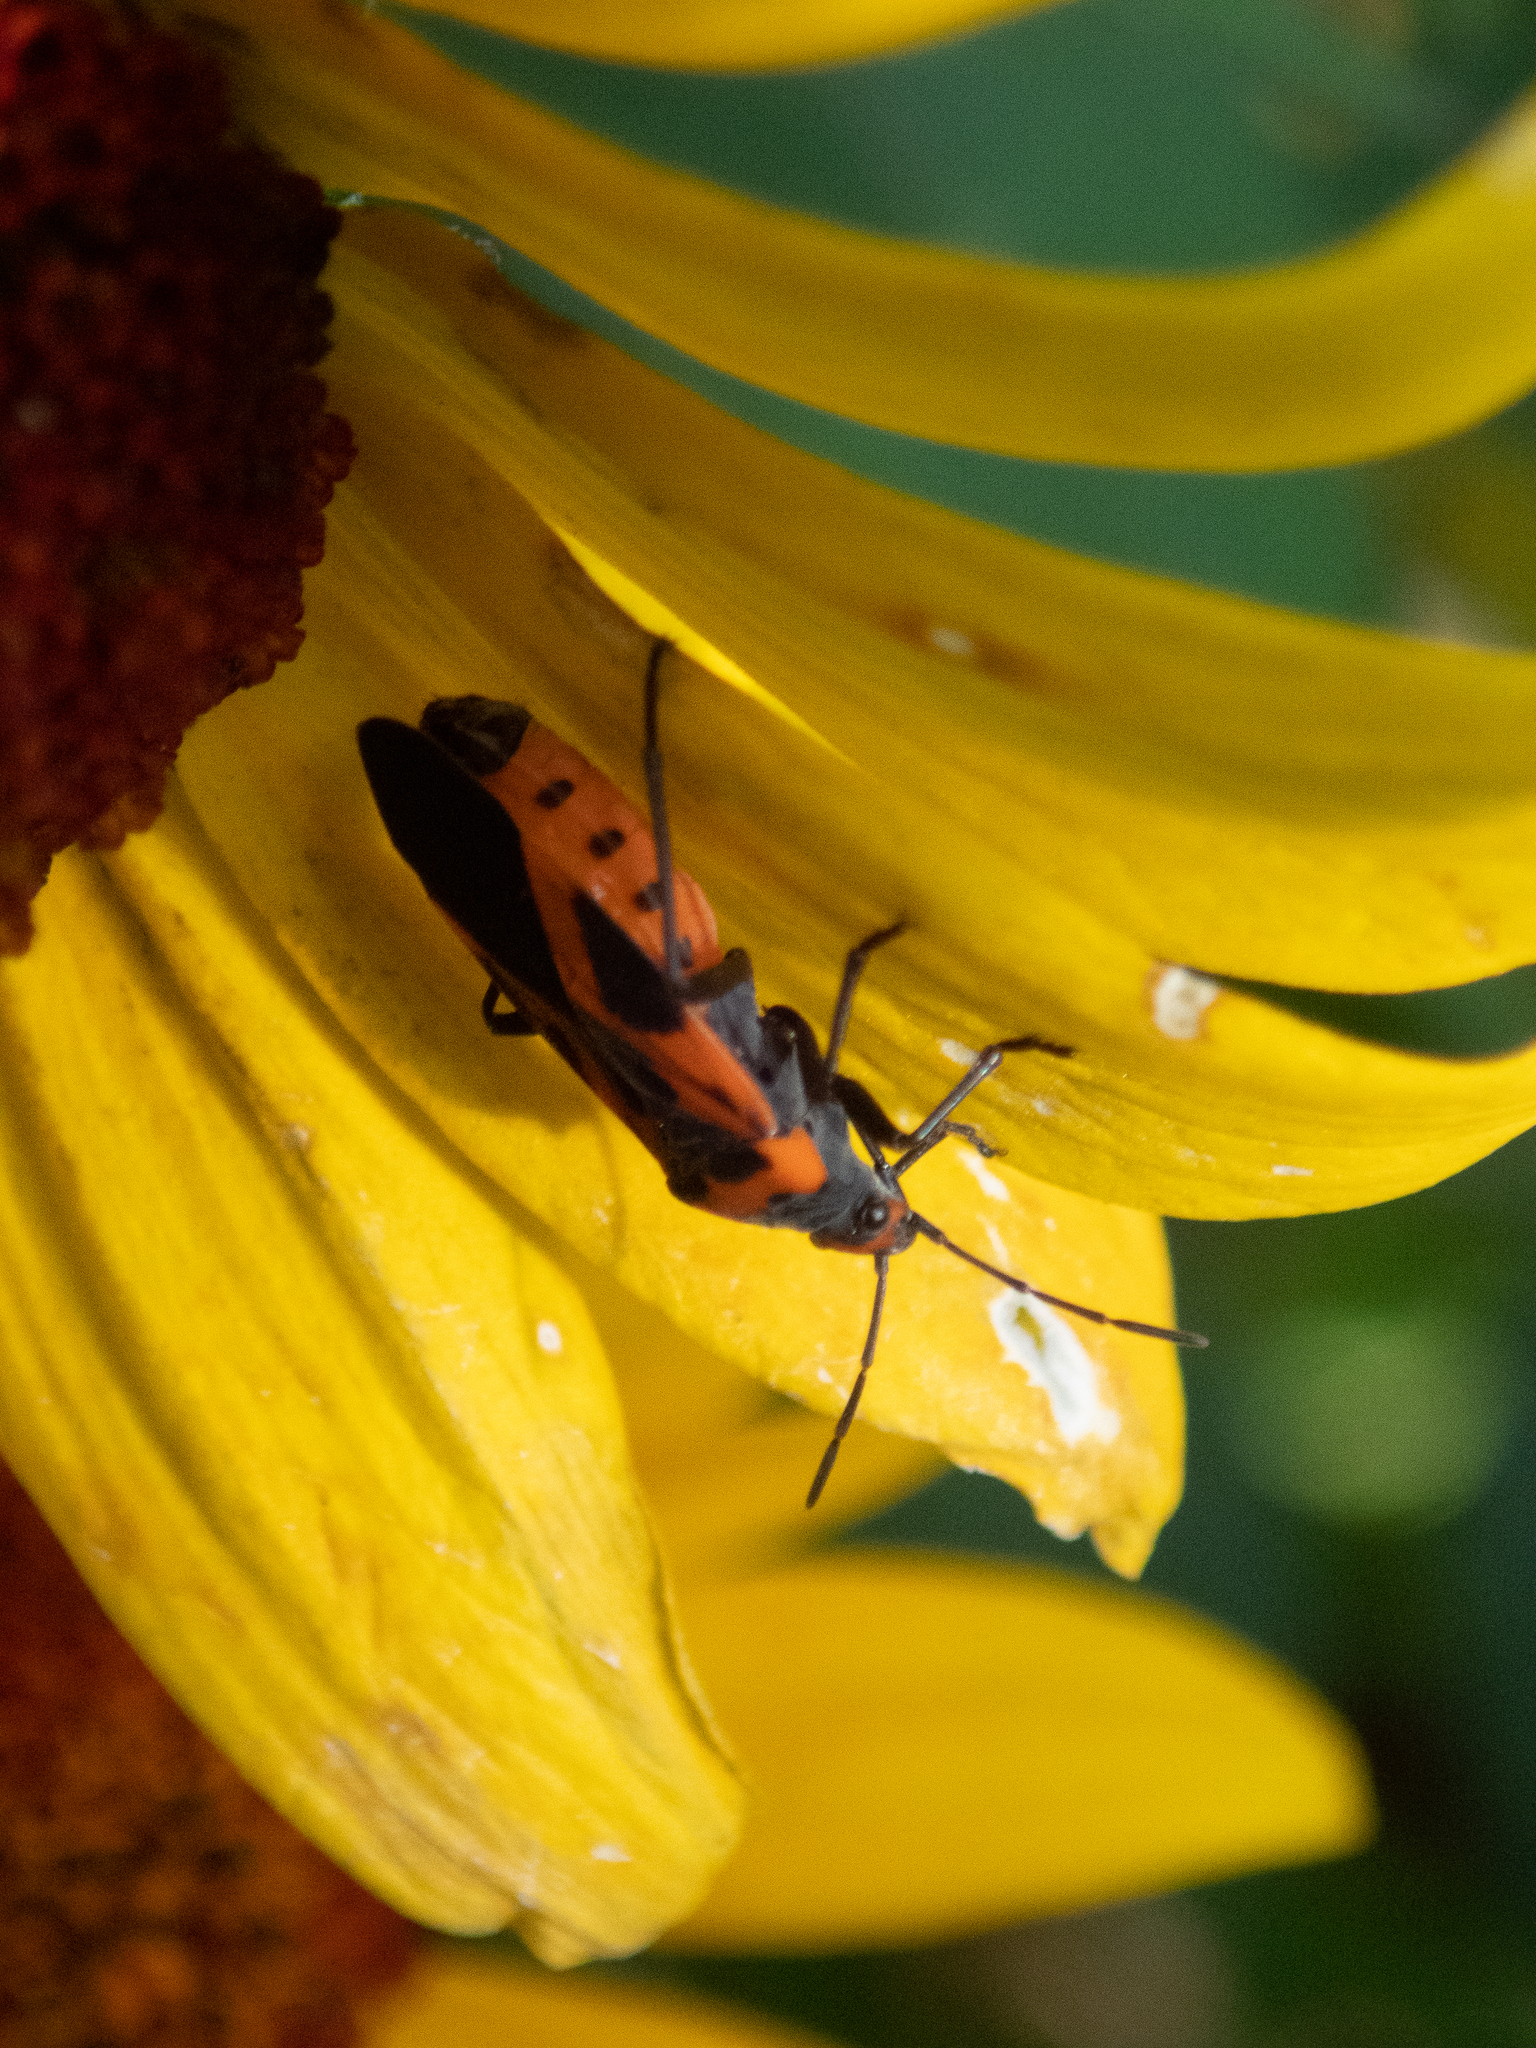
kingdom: Animalia
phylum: Arthropoda
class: Insecta
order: Hemiptera
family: Lygaeidae
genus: Lygaeus
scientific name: Lygaeus turcicus
